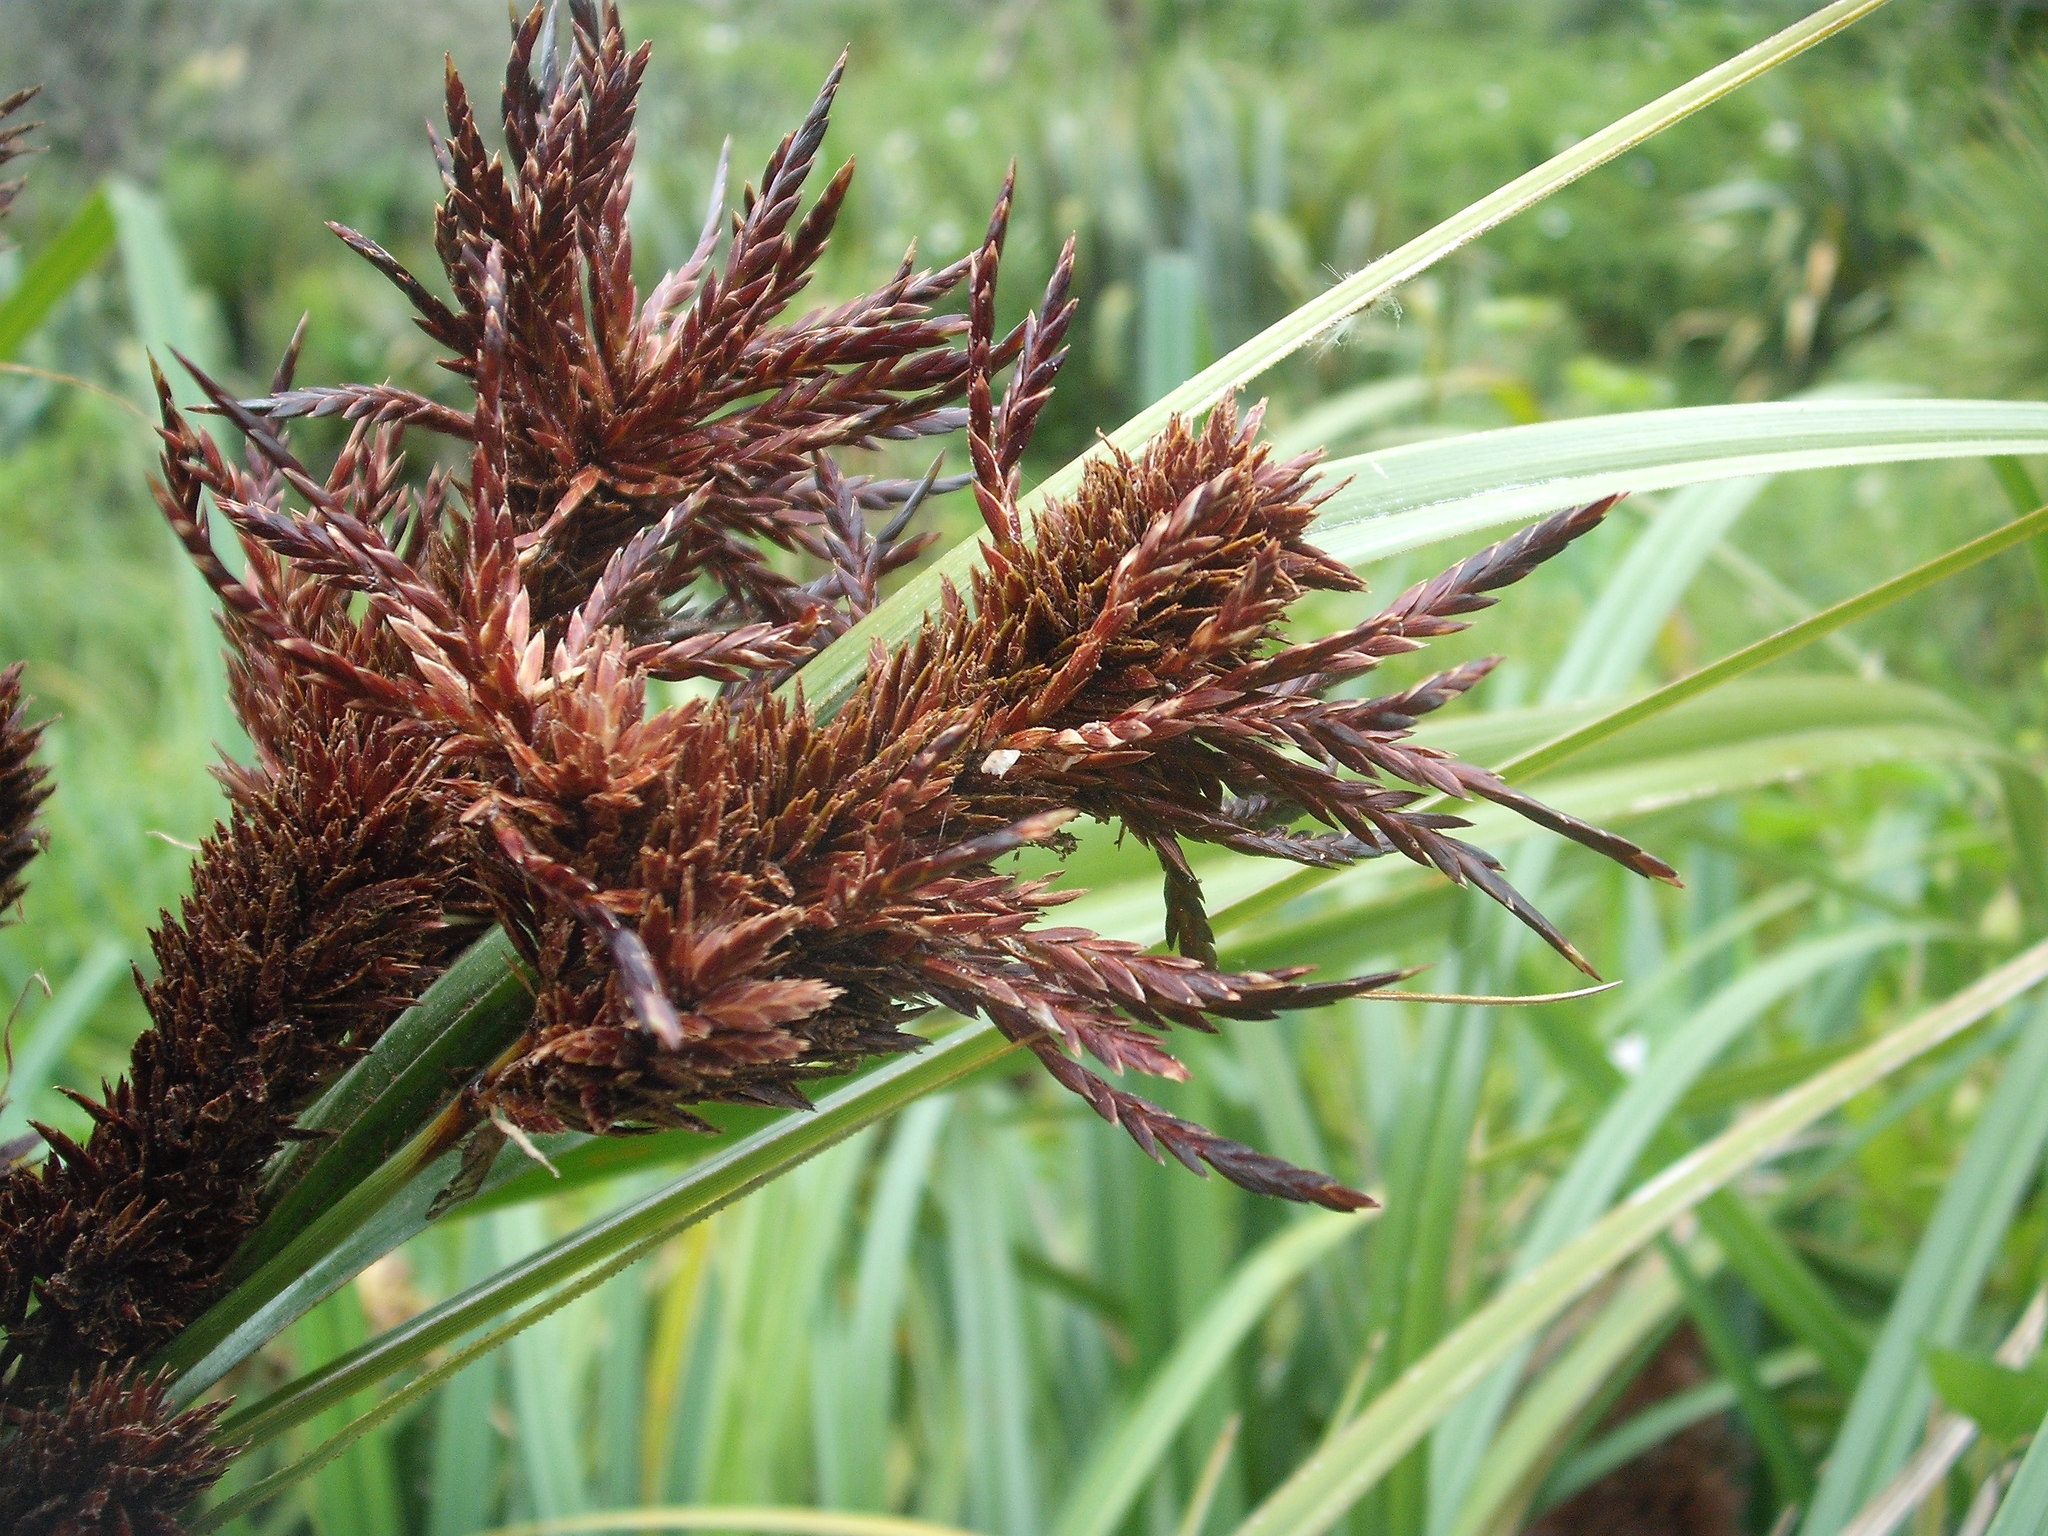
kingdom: Fungi
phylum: Basidiomycota
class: Microbotryomycetes
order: Microbotryales
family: Microbotryaceae
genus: Bauerago
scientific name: Bauerago gardneri
